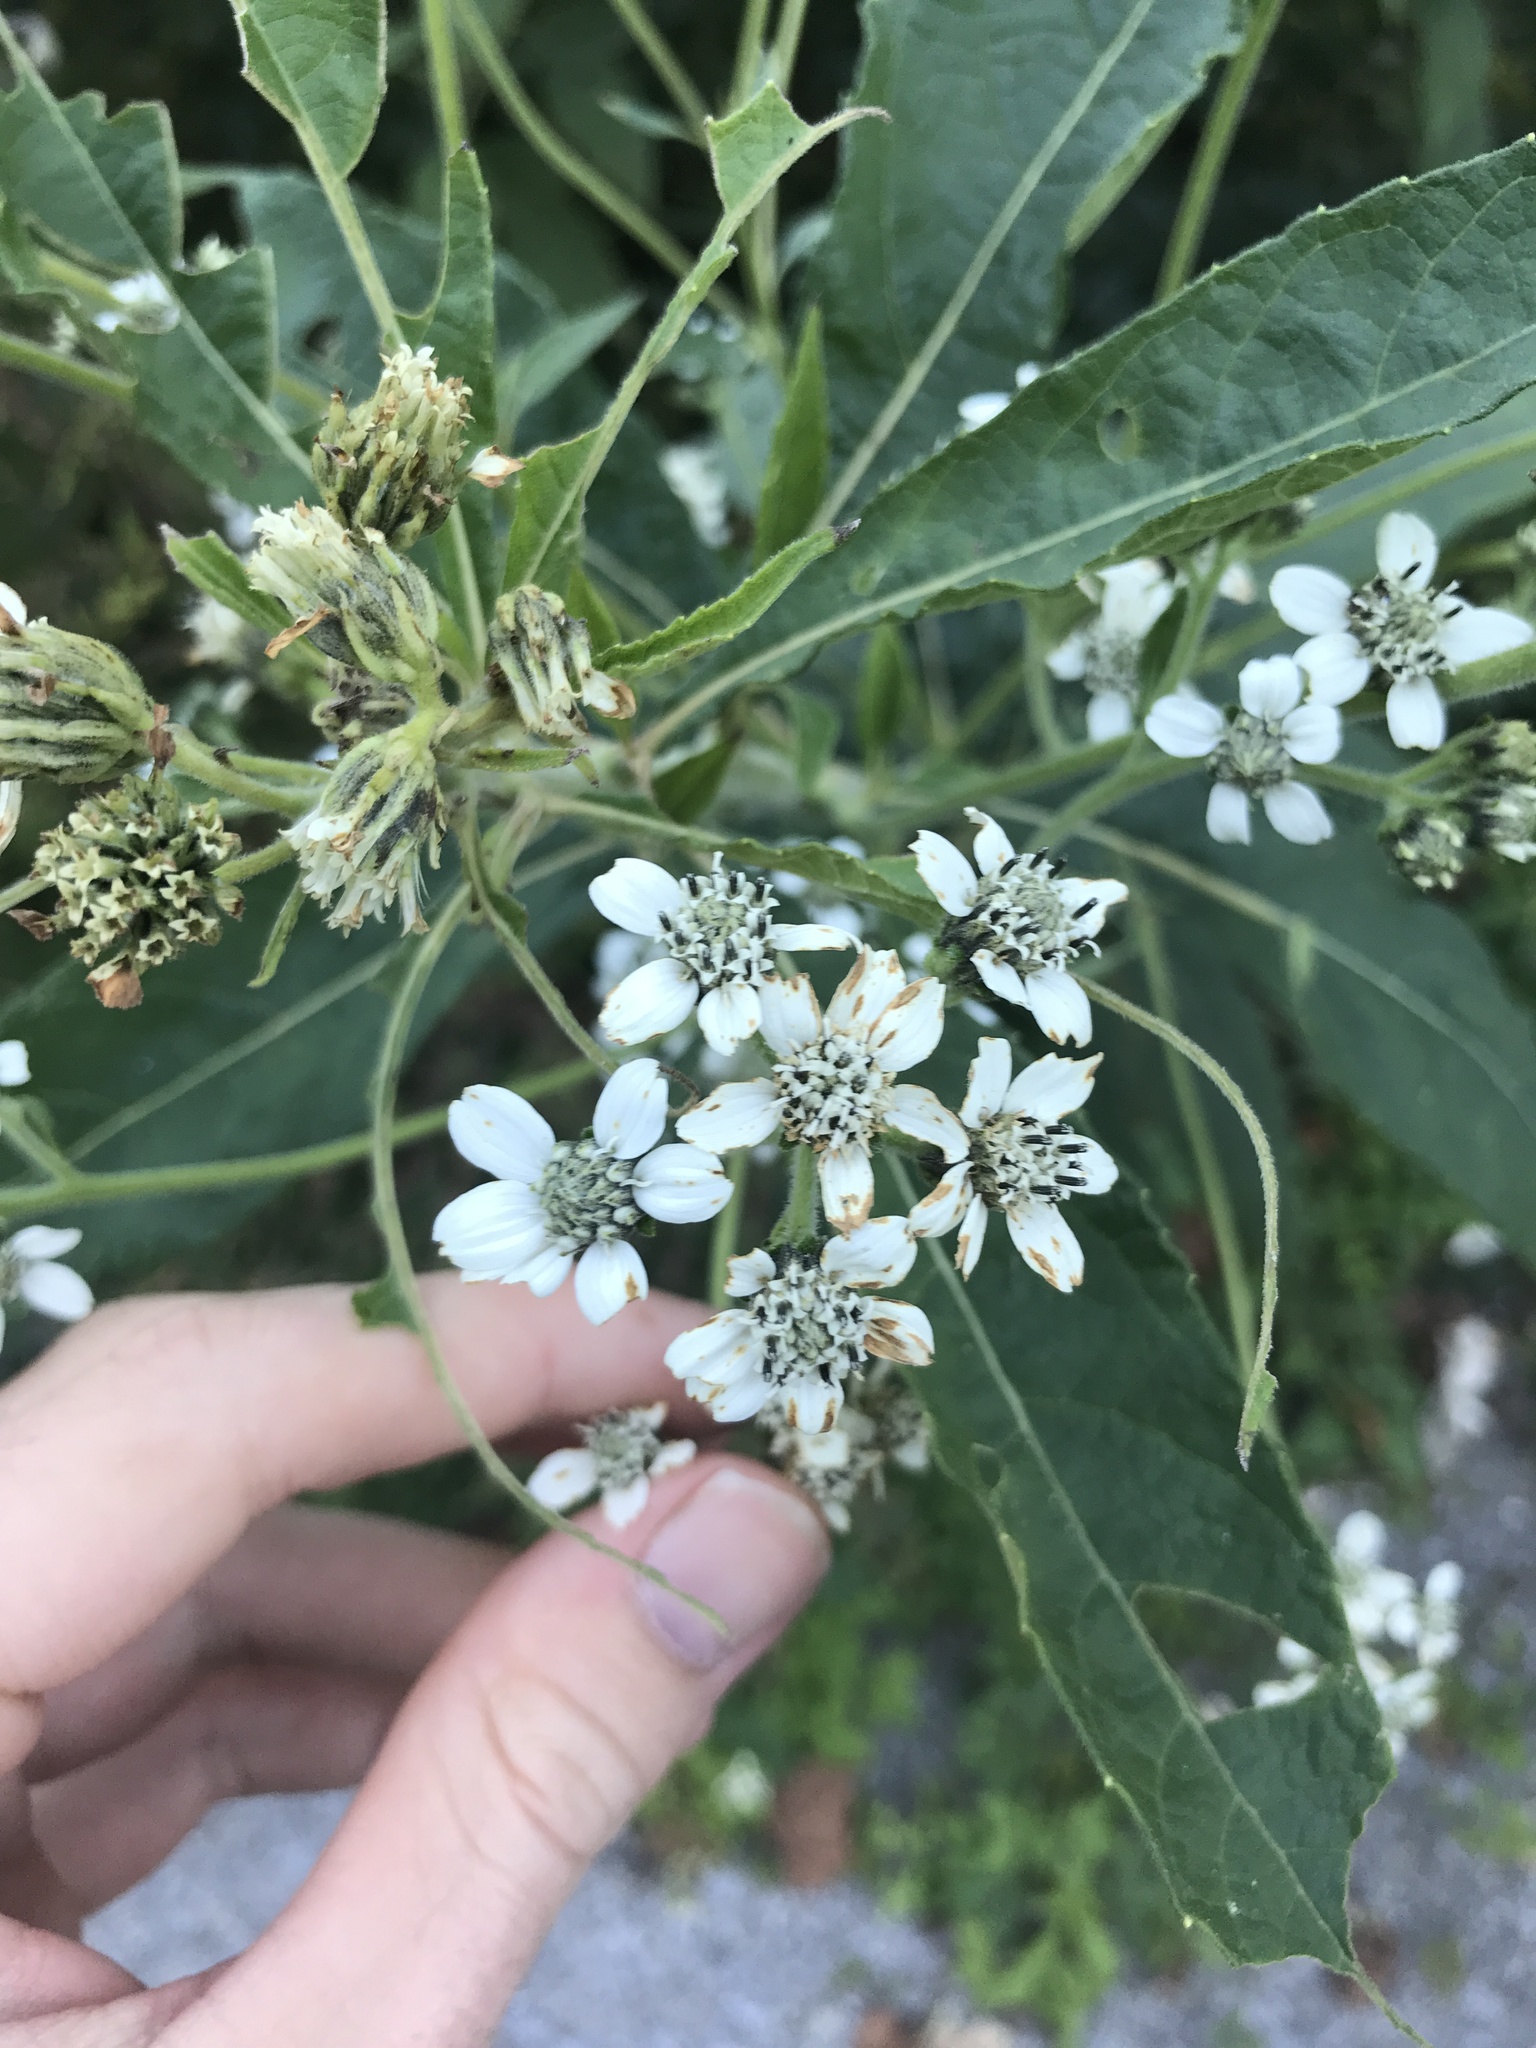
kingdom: Plantae
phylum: Tracheophyta
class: Magnoliopsida
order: Asterales
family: Asteraceae
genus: Verbesina
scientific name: Verbesina virginica
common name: Frostweed
